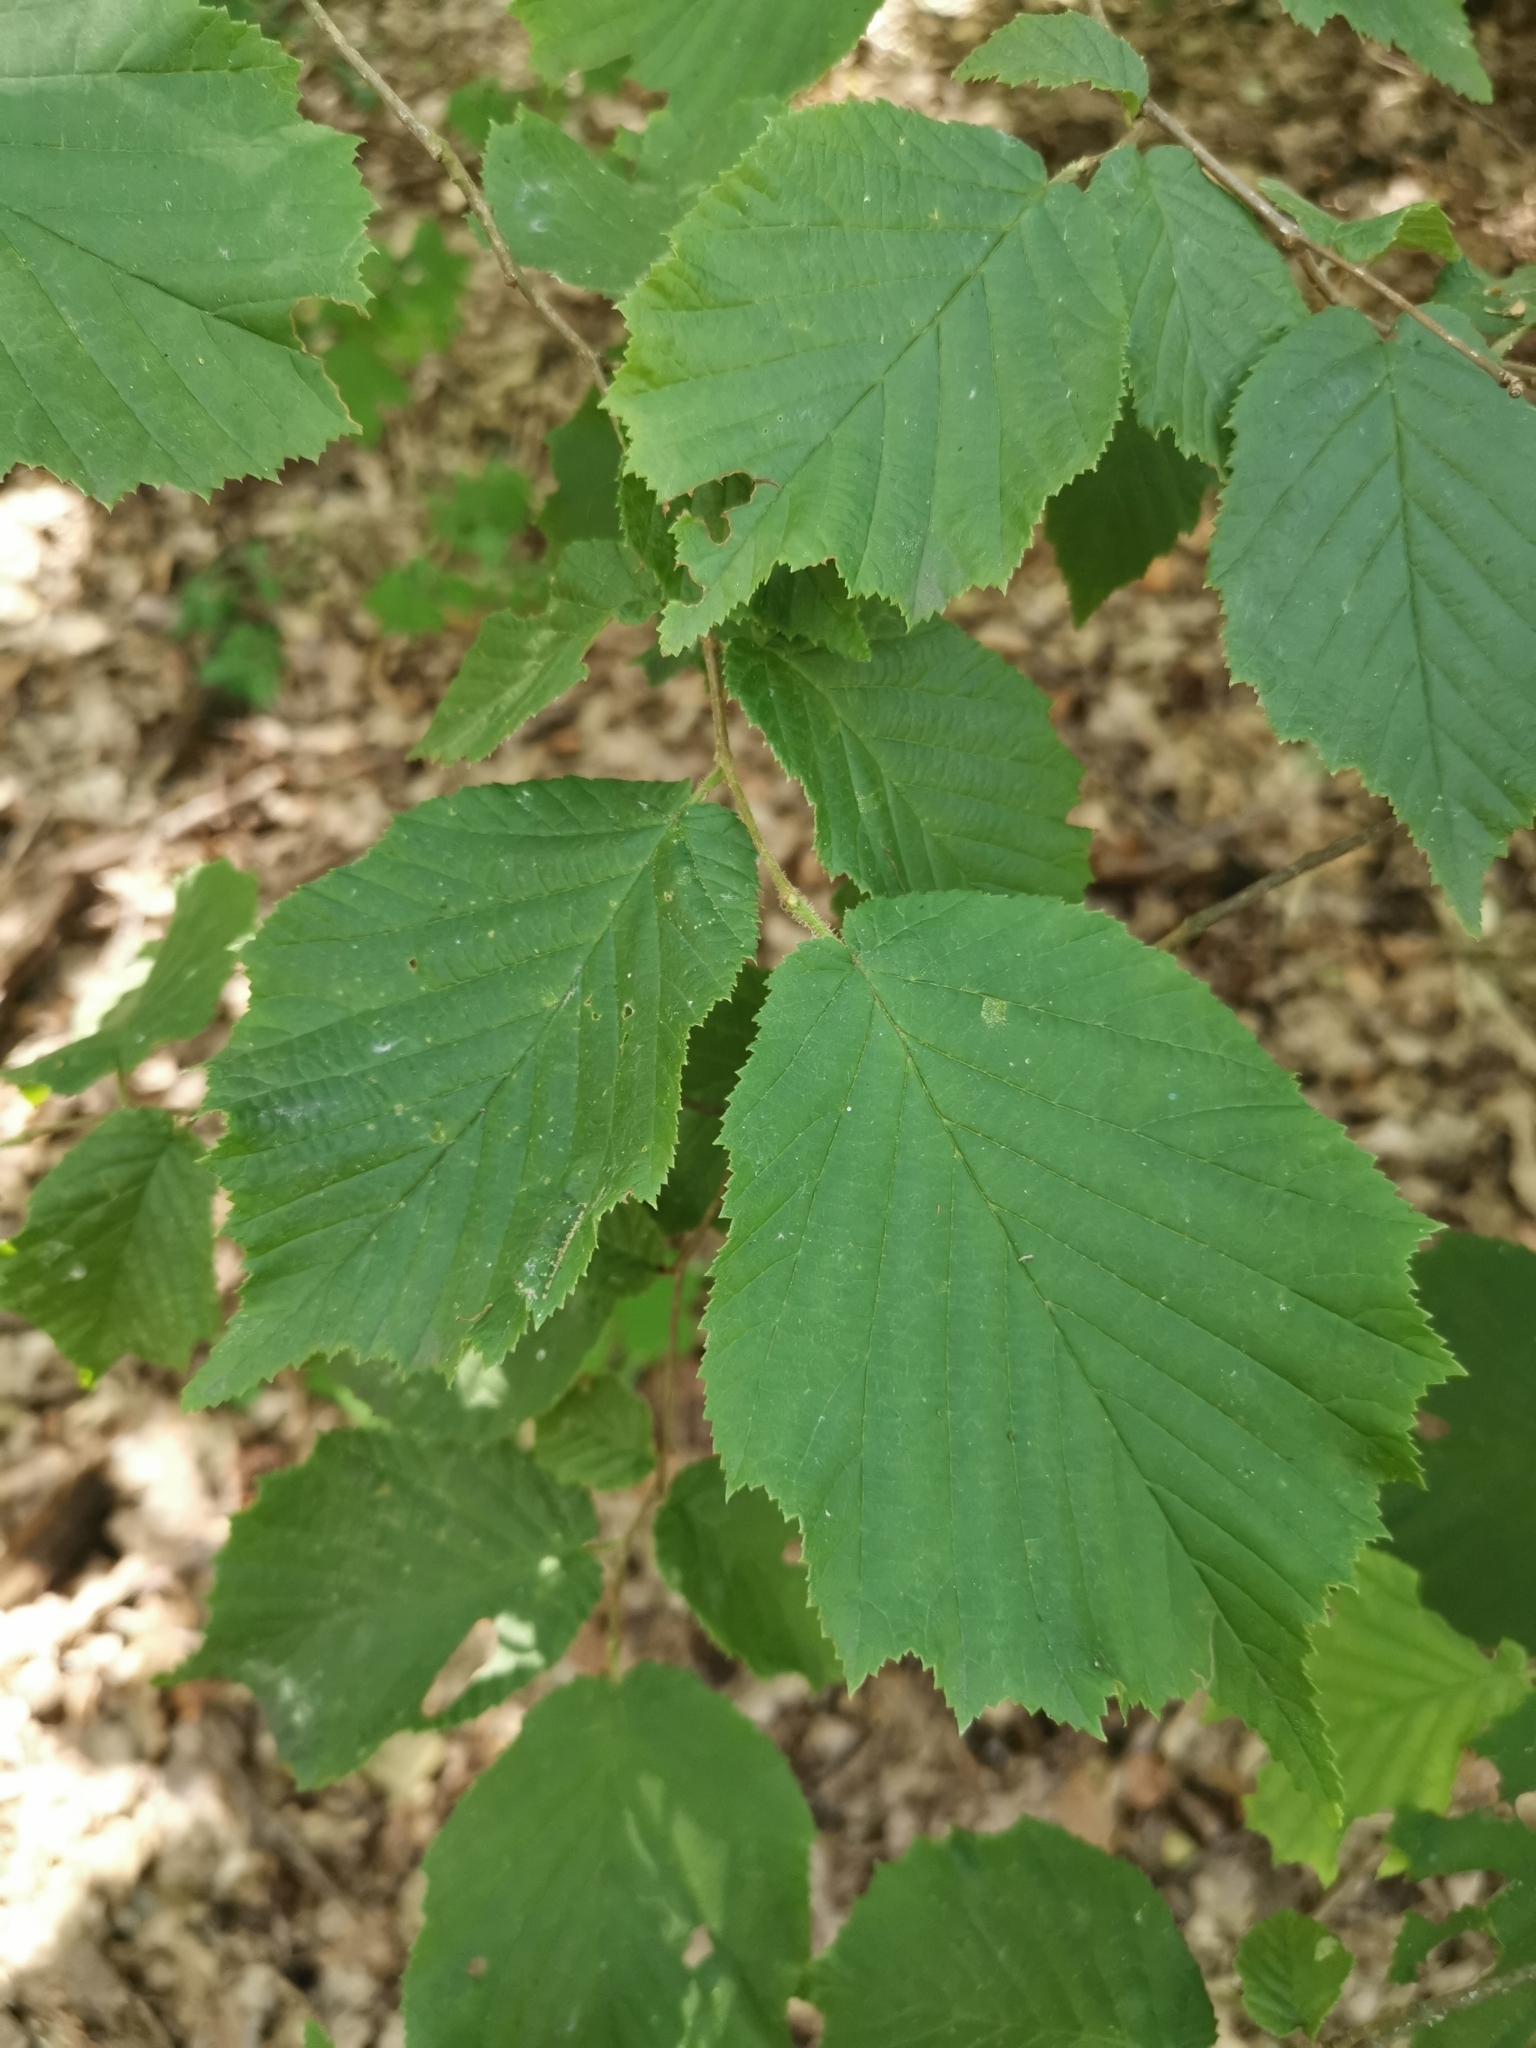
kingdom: Plantae
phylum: Tracheophyta
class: Magnoliopsida
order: Fagales
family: Betulaceae
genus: Corylus
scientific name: Corylus avellana
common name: European hazel
